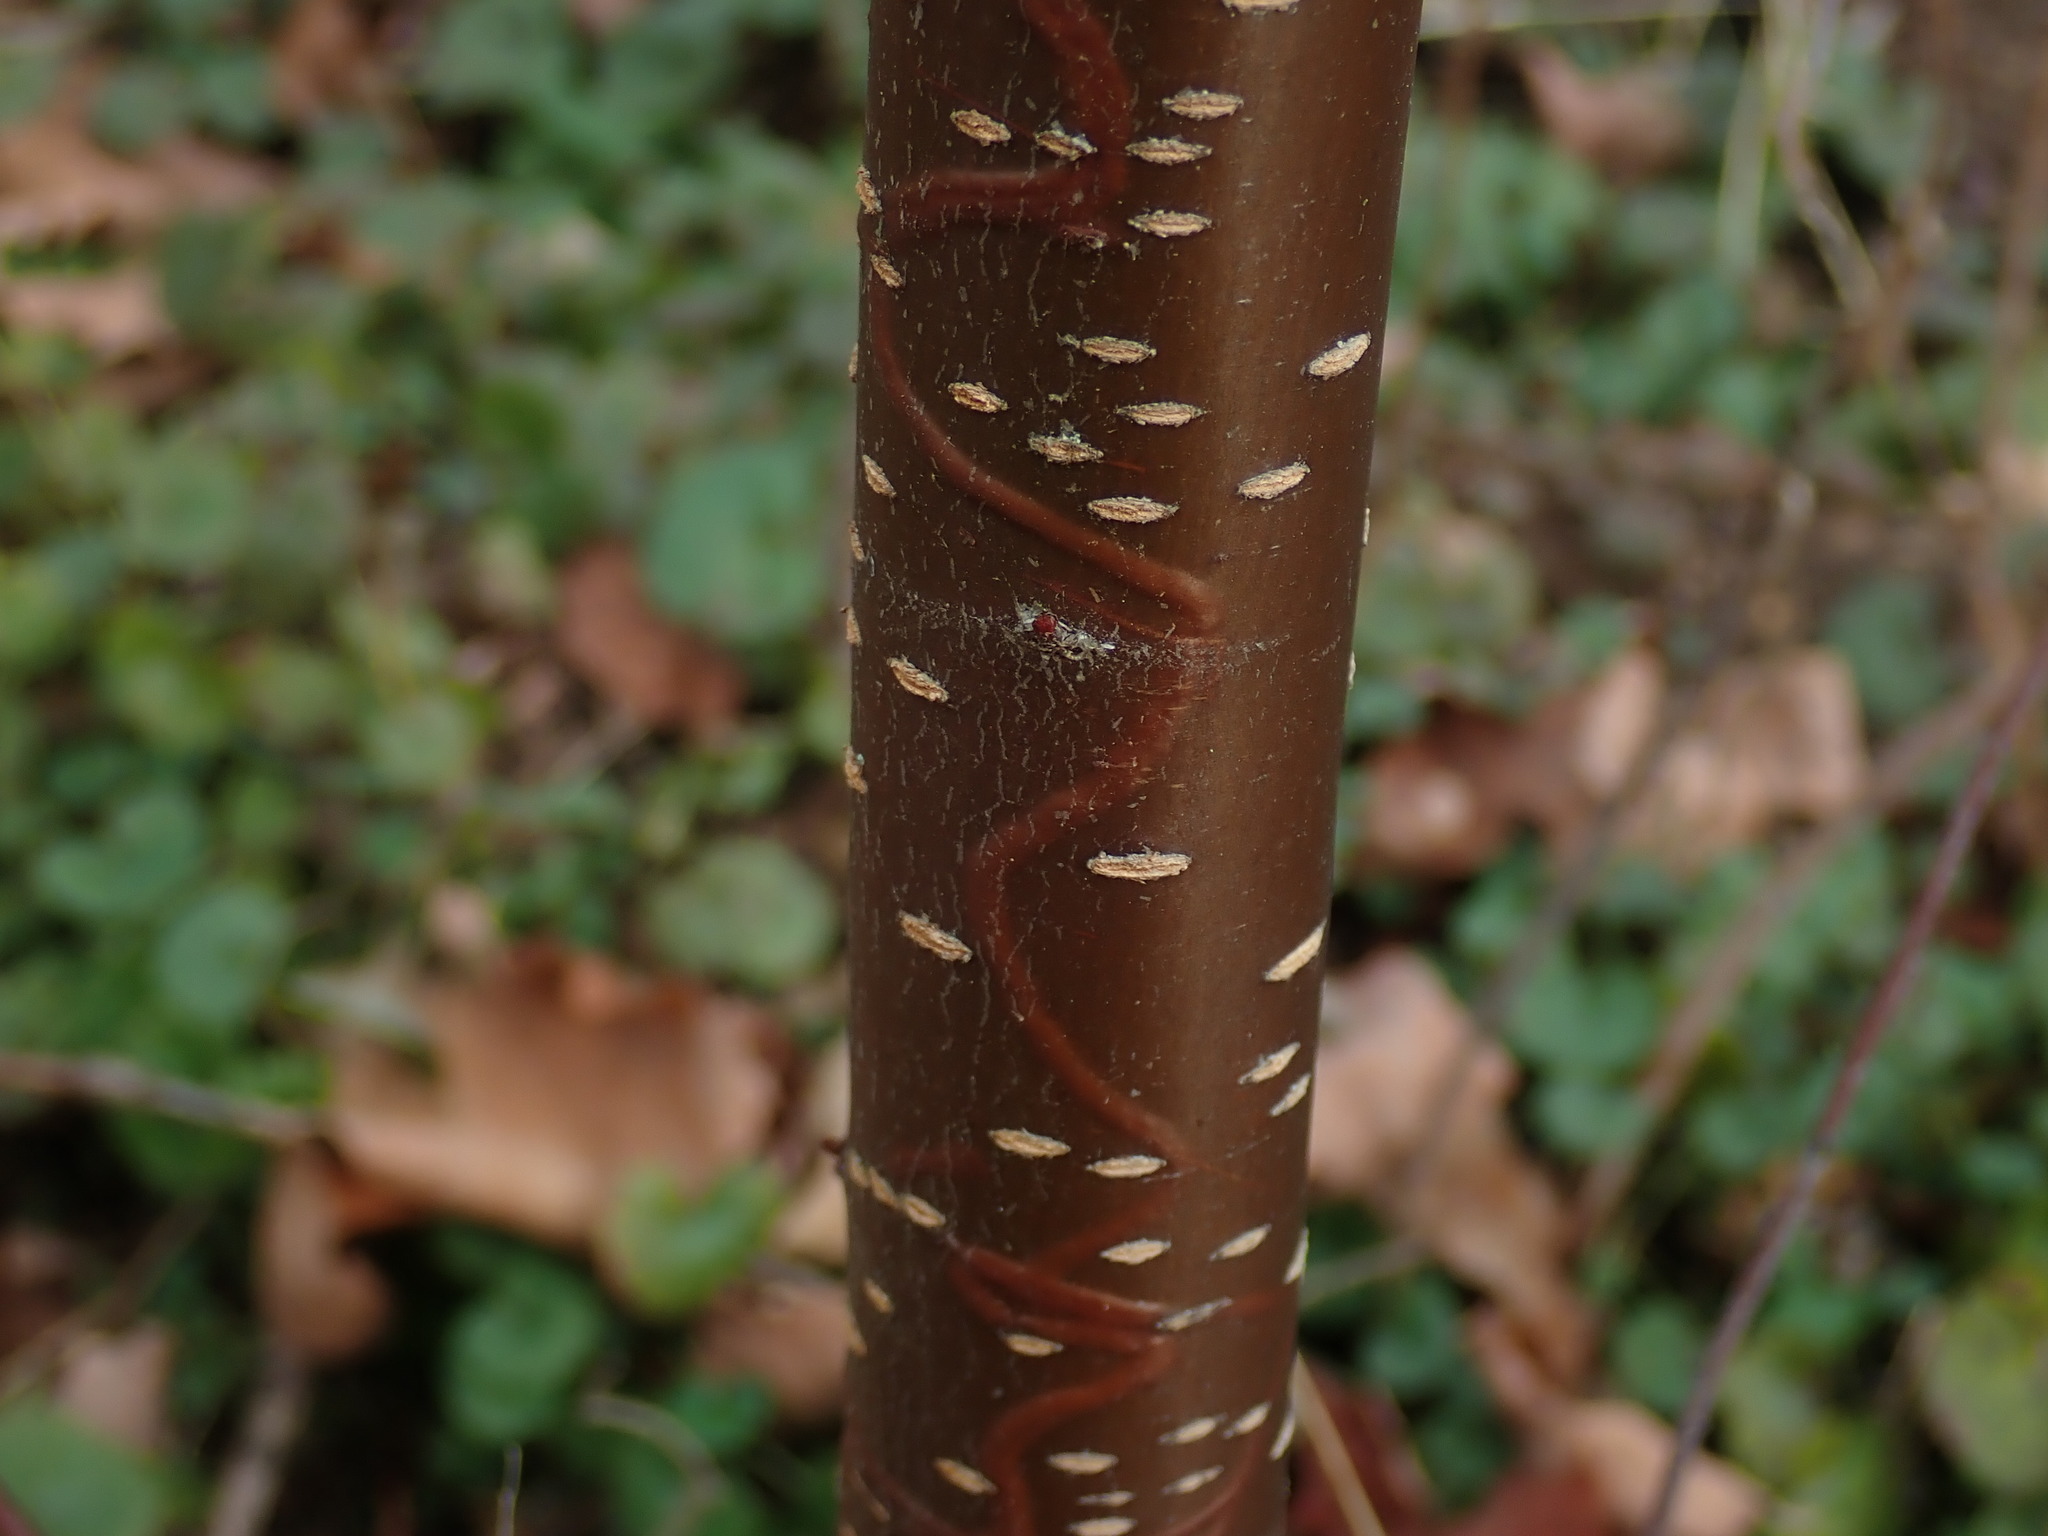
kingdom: Animalia
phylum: Arthropoda
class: Insecta
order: Lepidoptera
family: Gracillariidae
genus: Marmara
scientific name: Marmara serotinella
